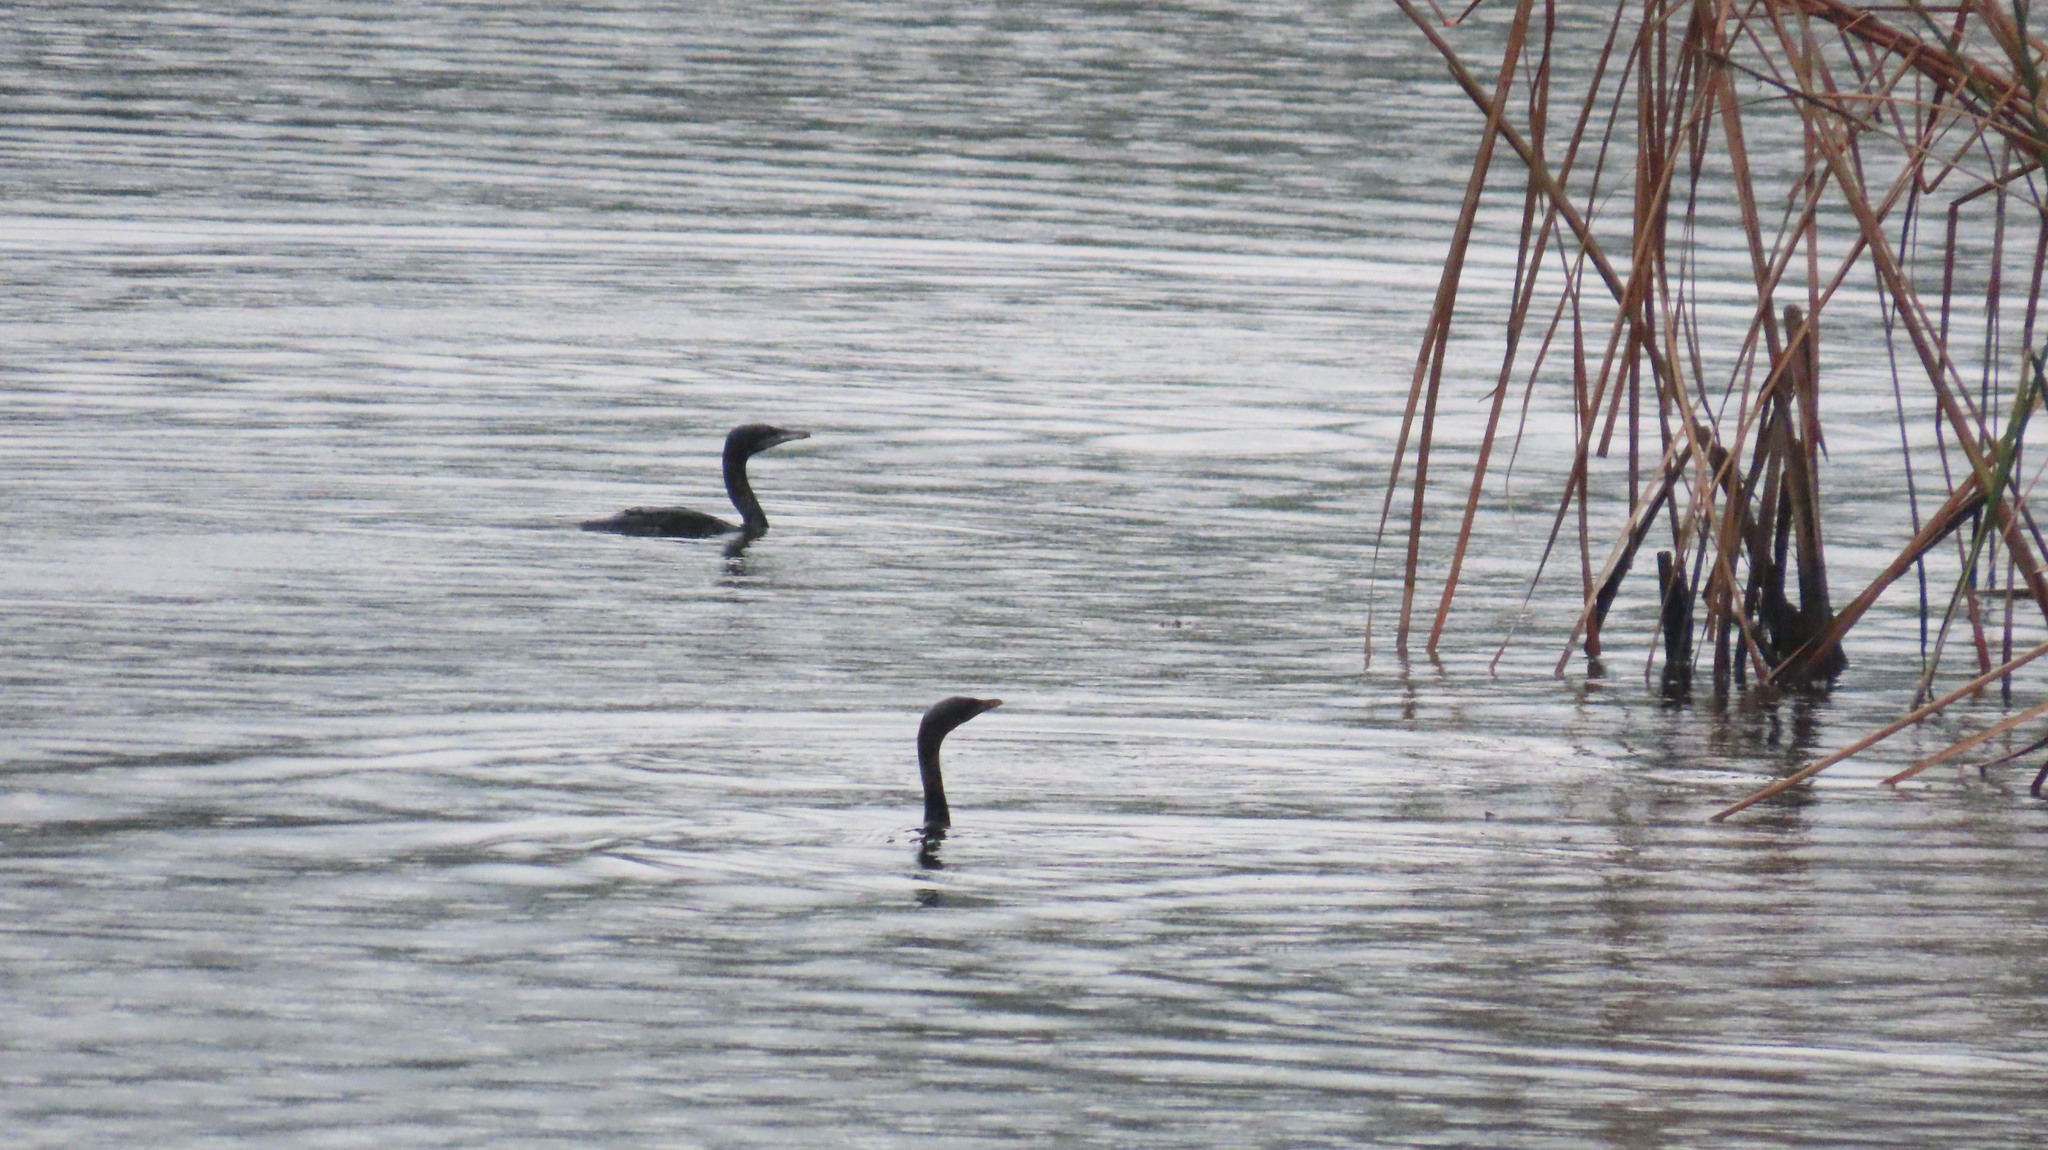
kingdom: Animalia
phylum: Chordata
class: Aves
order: Suliformes
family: Phalacrocoracidae
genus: Microcarbo
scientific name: Microcarbo niger
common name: Little cormorant
